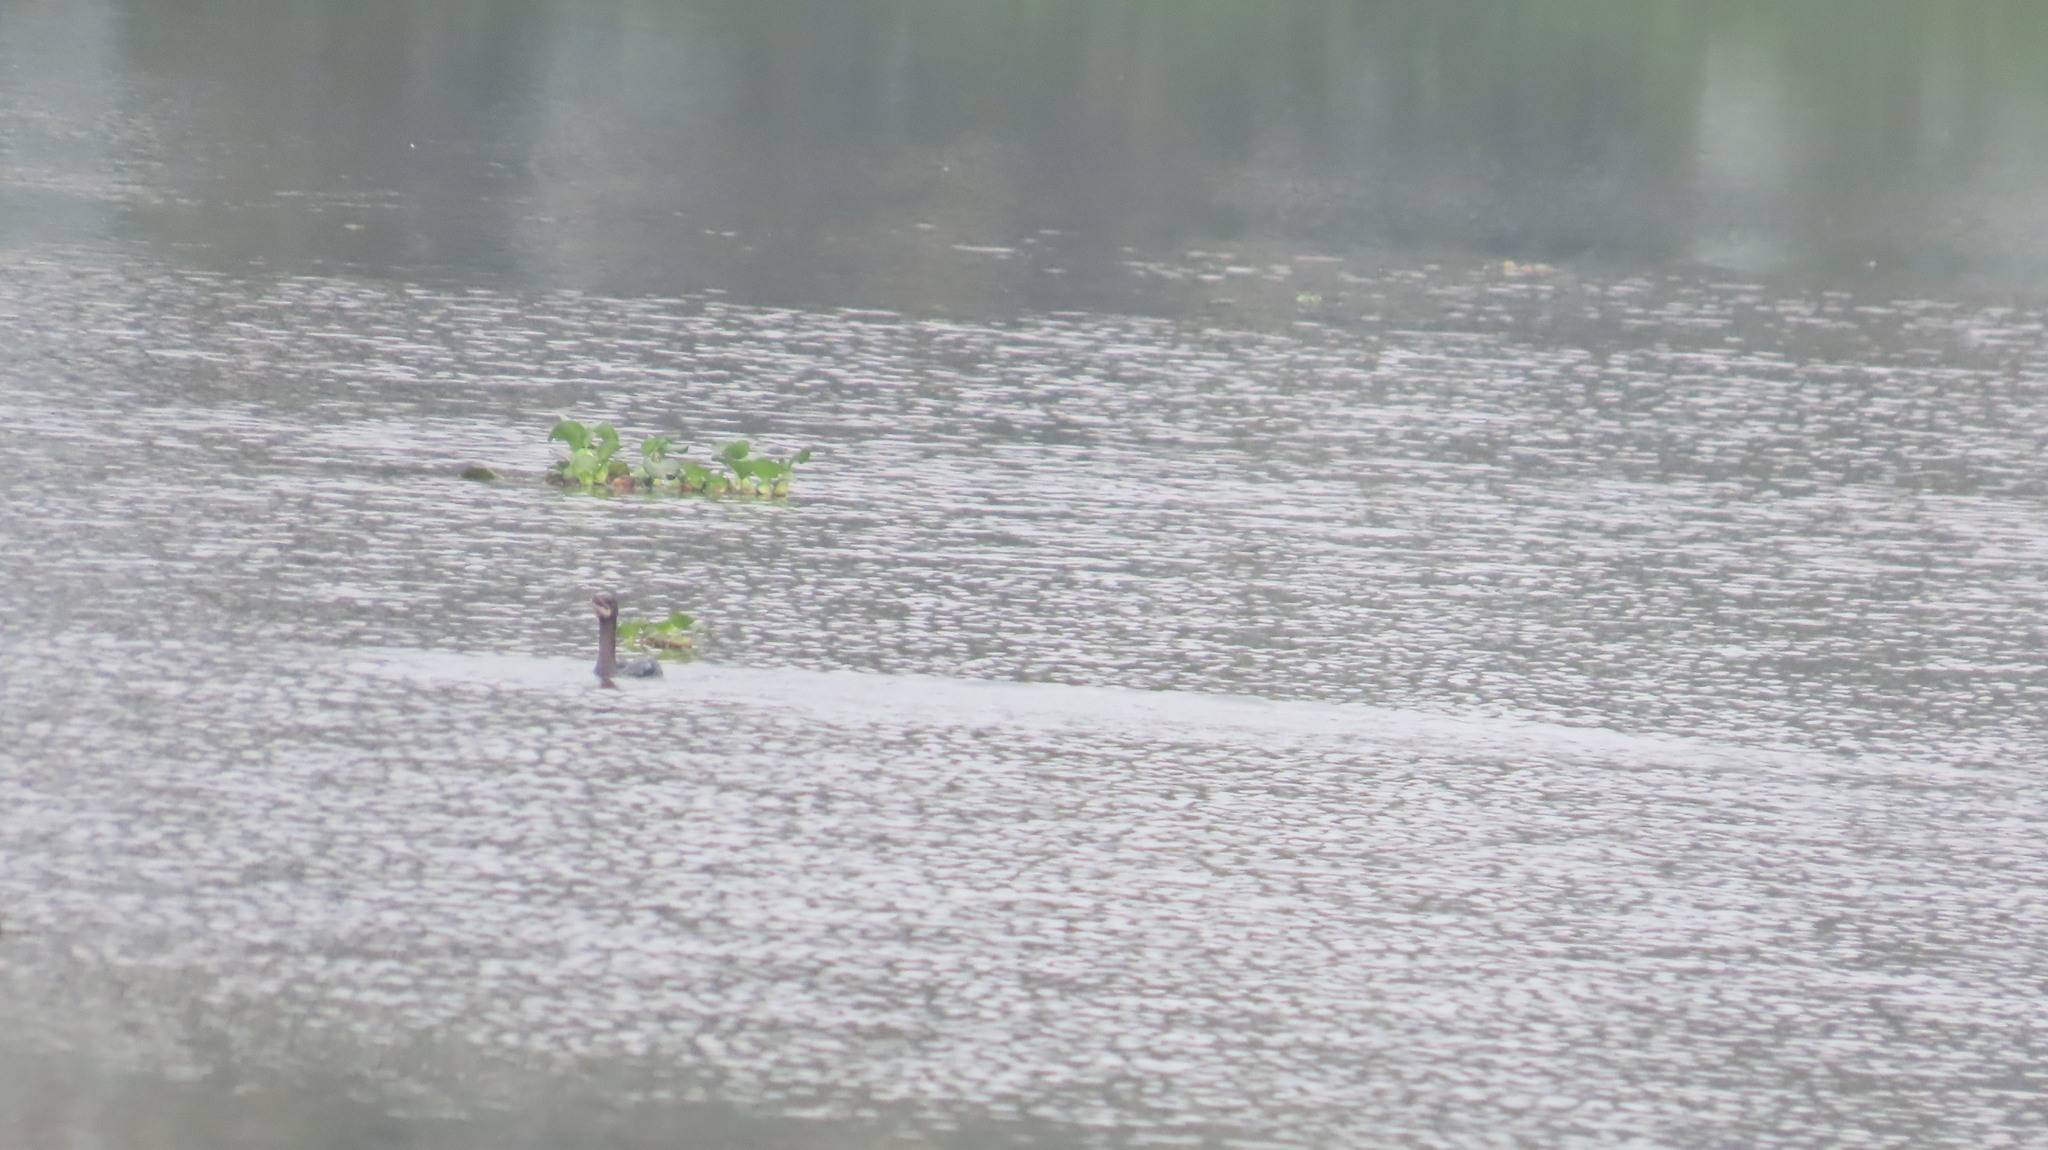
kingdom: Animalia
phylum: Chordata
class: Aves
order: Suliformes
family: Phalacrocoracidae
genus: Microcarbo
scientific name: Microcarbo niger
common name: Little cormorant
